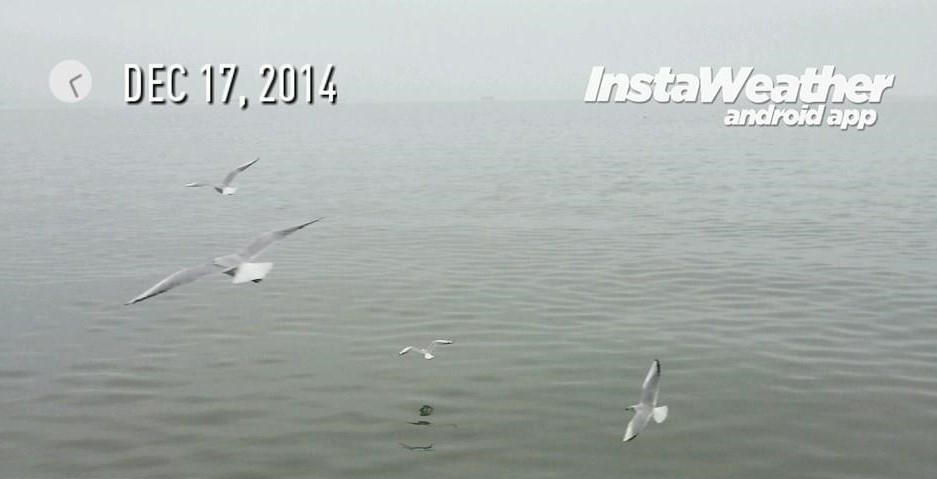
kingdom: Animalia
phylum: Chordata
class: Aves
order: Charadriiformes
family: Laridae
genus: Chroicocephalus
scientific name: Chroicocephalus ridibundus
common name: Black-headed gull
